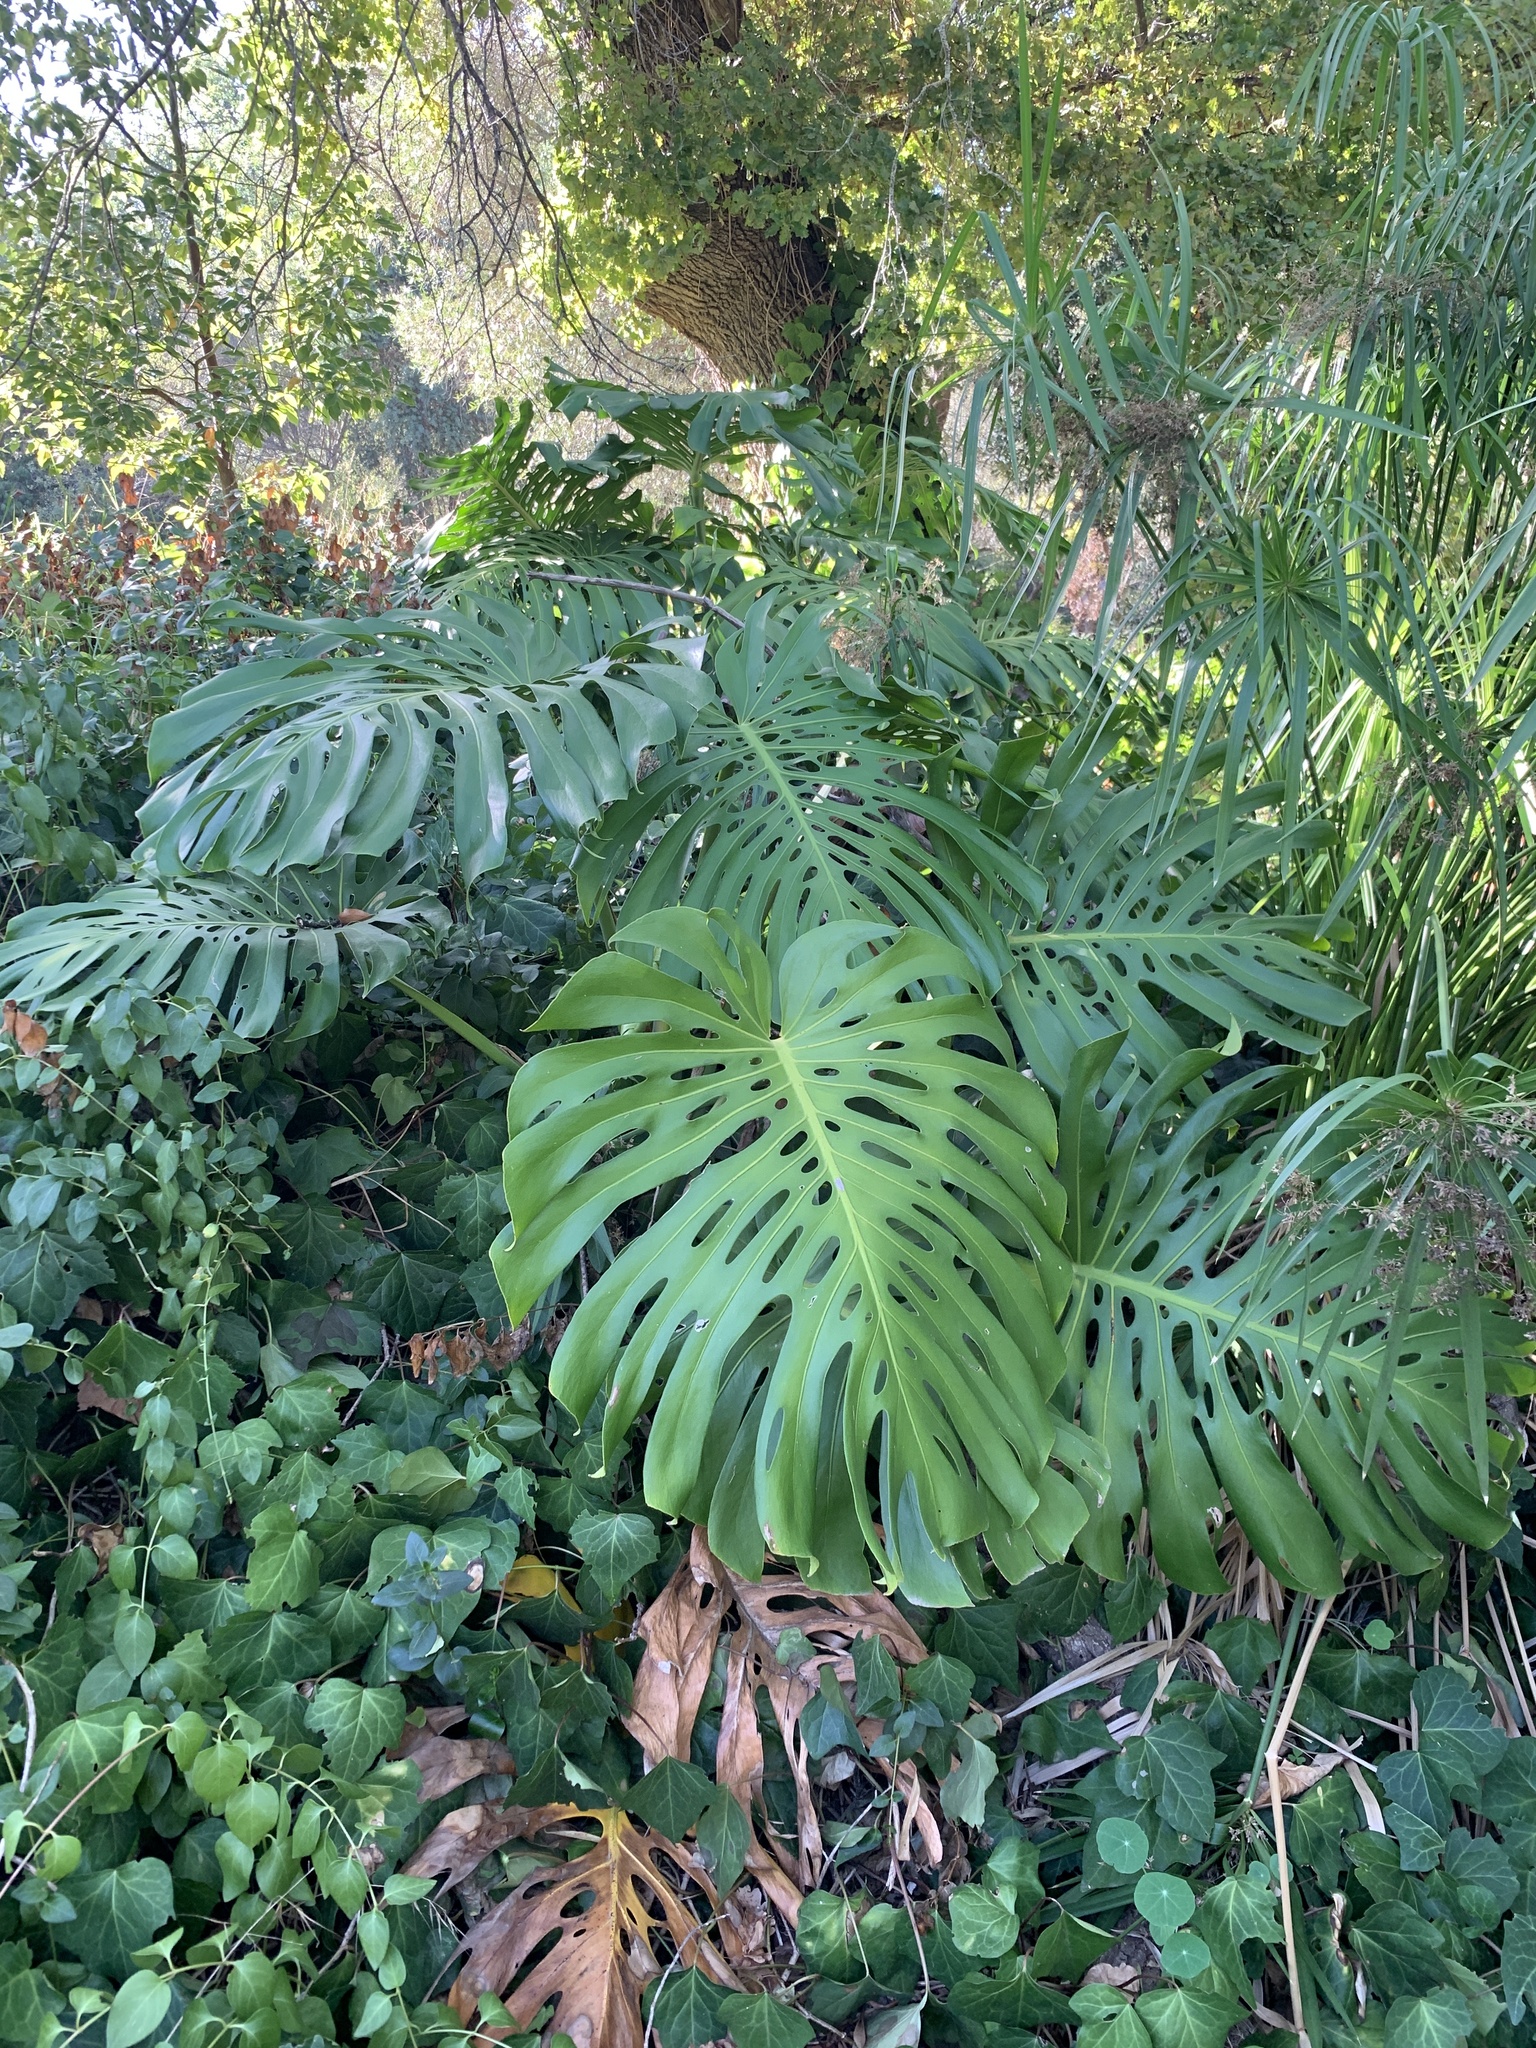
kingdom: Plantae
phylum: Tracheophyta
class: Liliopsida
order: Alismatales
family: Araceae
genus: Monstera
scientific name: Monstera deliciosa
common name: Cut-leaf-philodendron
